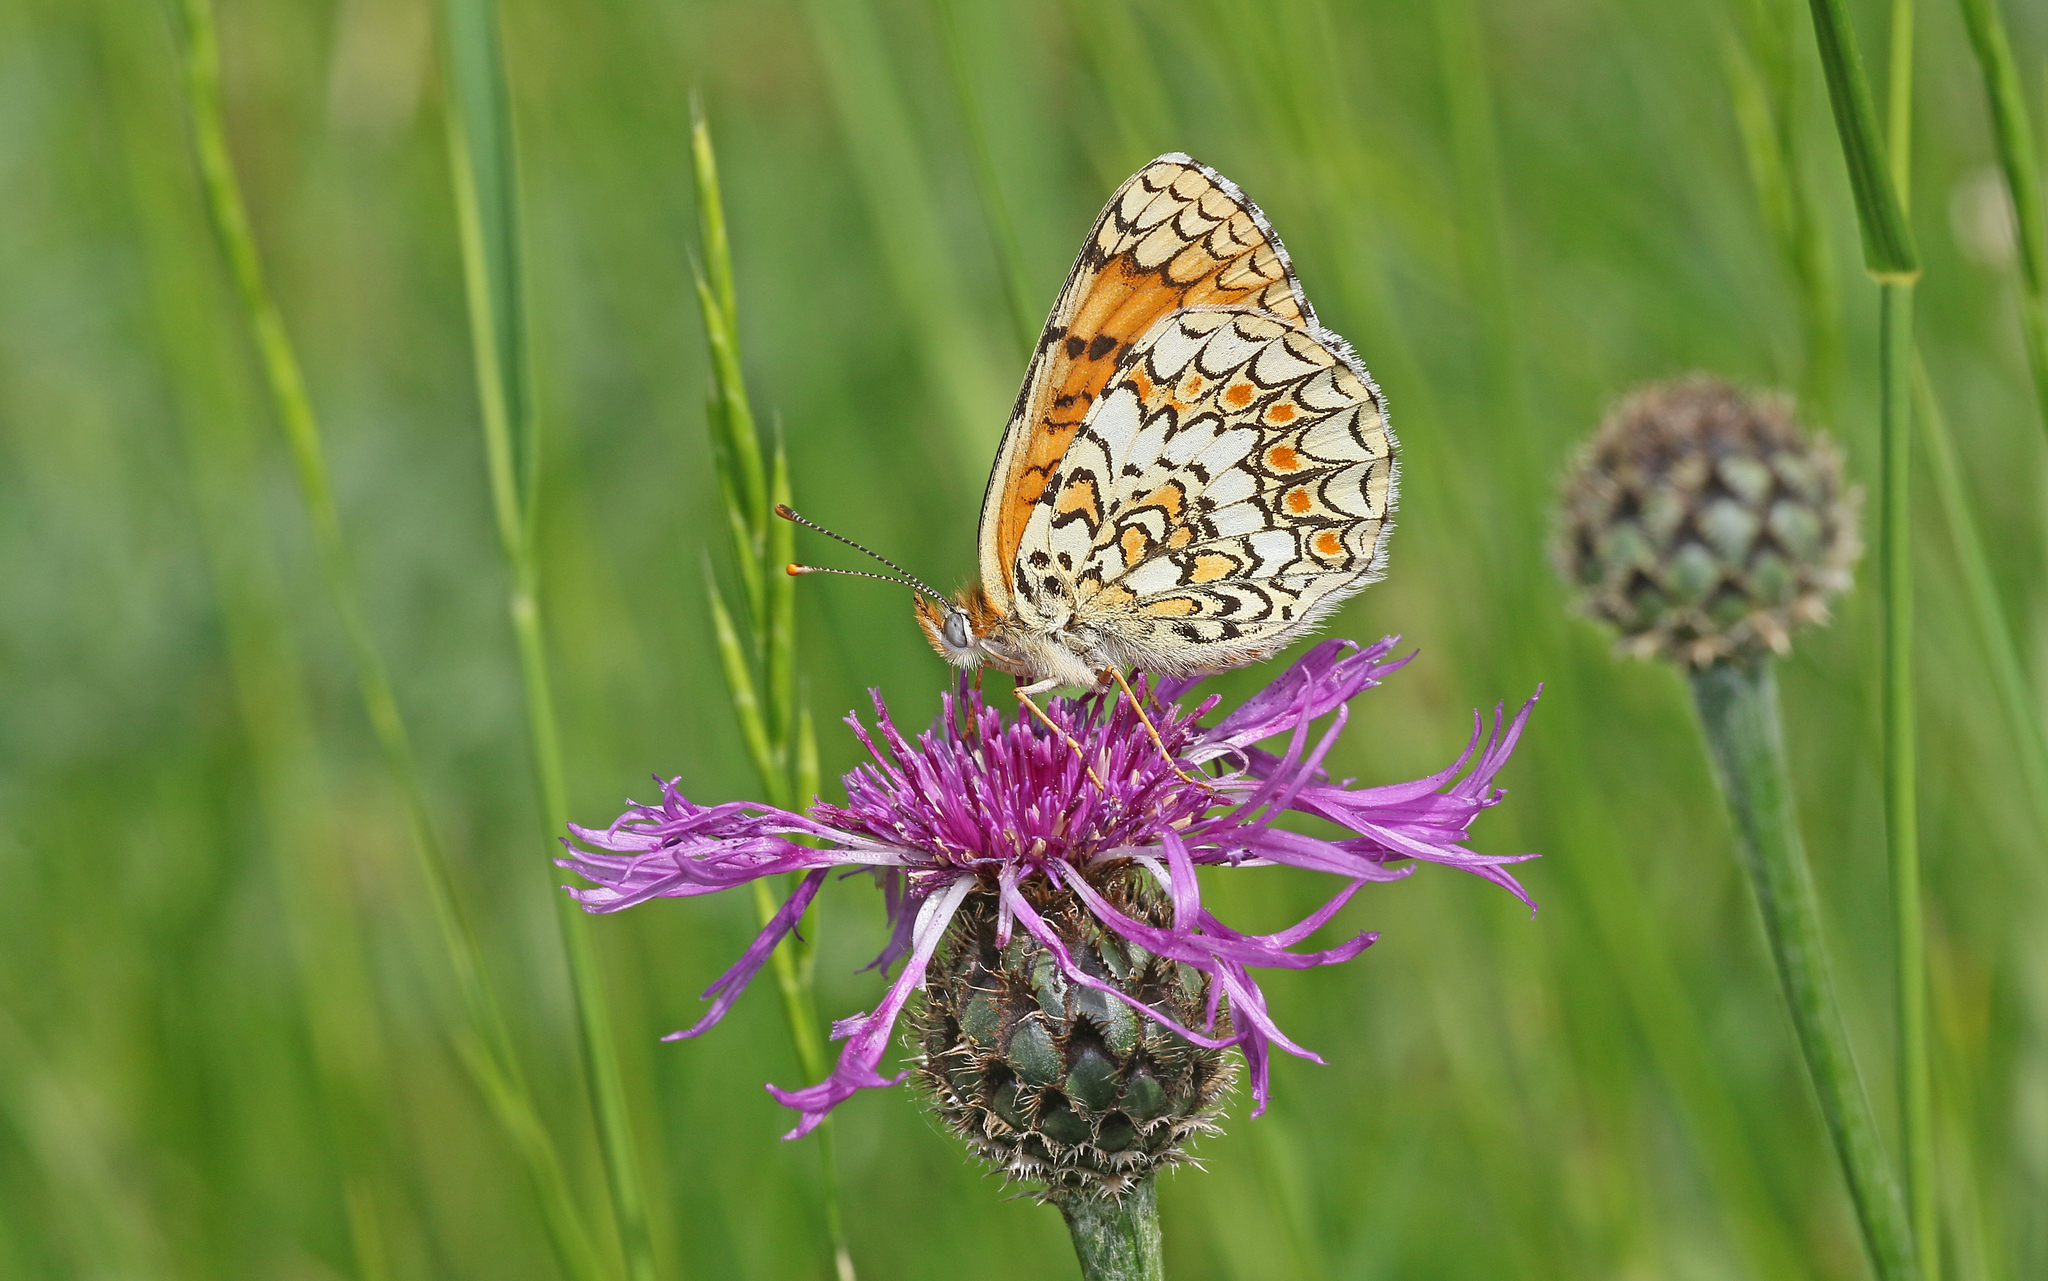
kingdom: Animalia
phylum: Arthropoda
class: Insecta
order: Lepidoptera
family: Nymphalidae
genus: Melitaea
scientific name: Melitaea phoebe
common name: Knapweed fritillary
